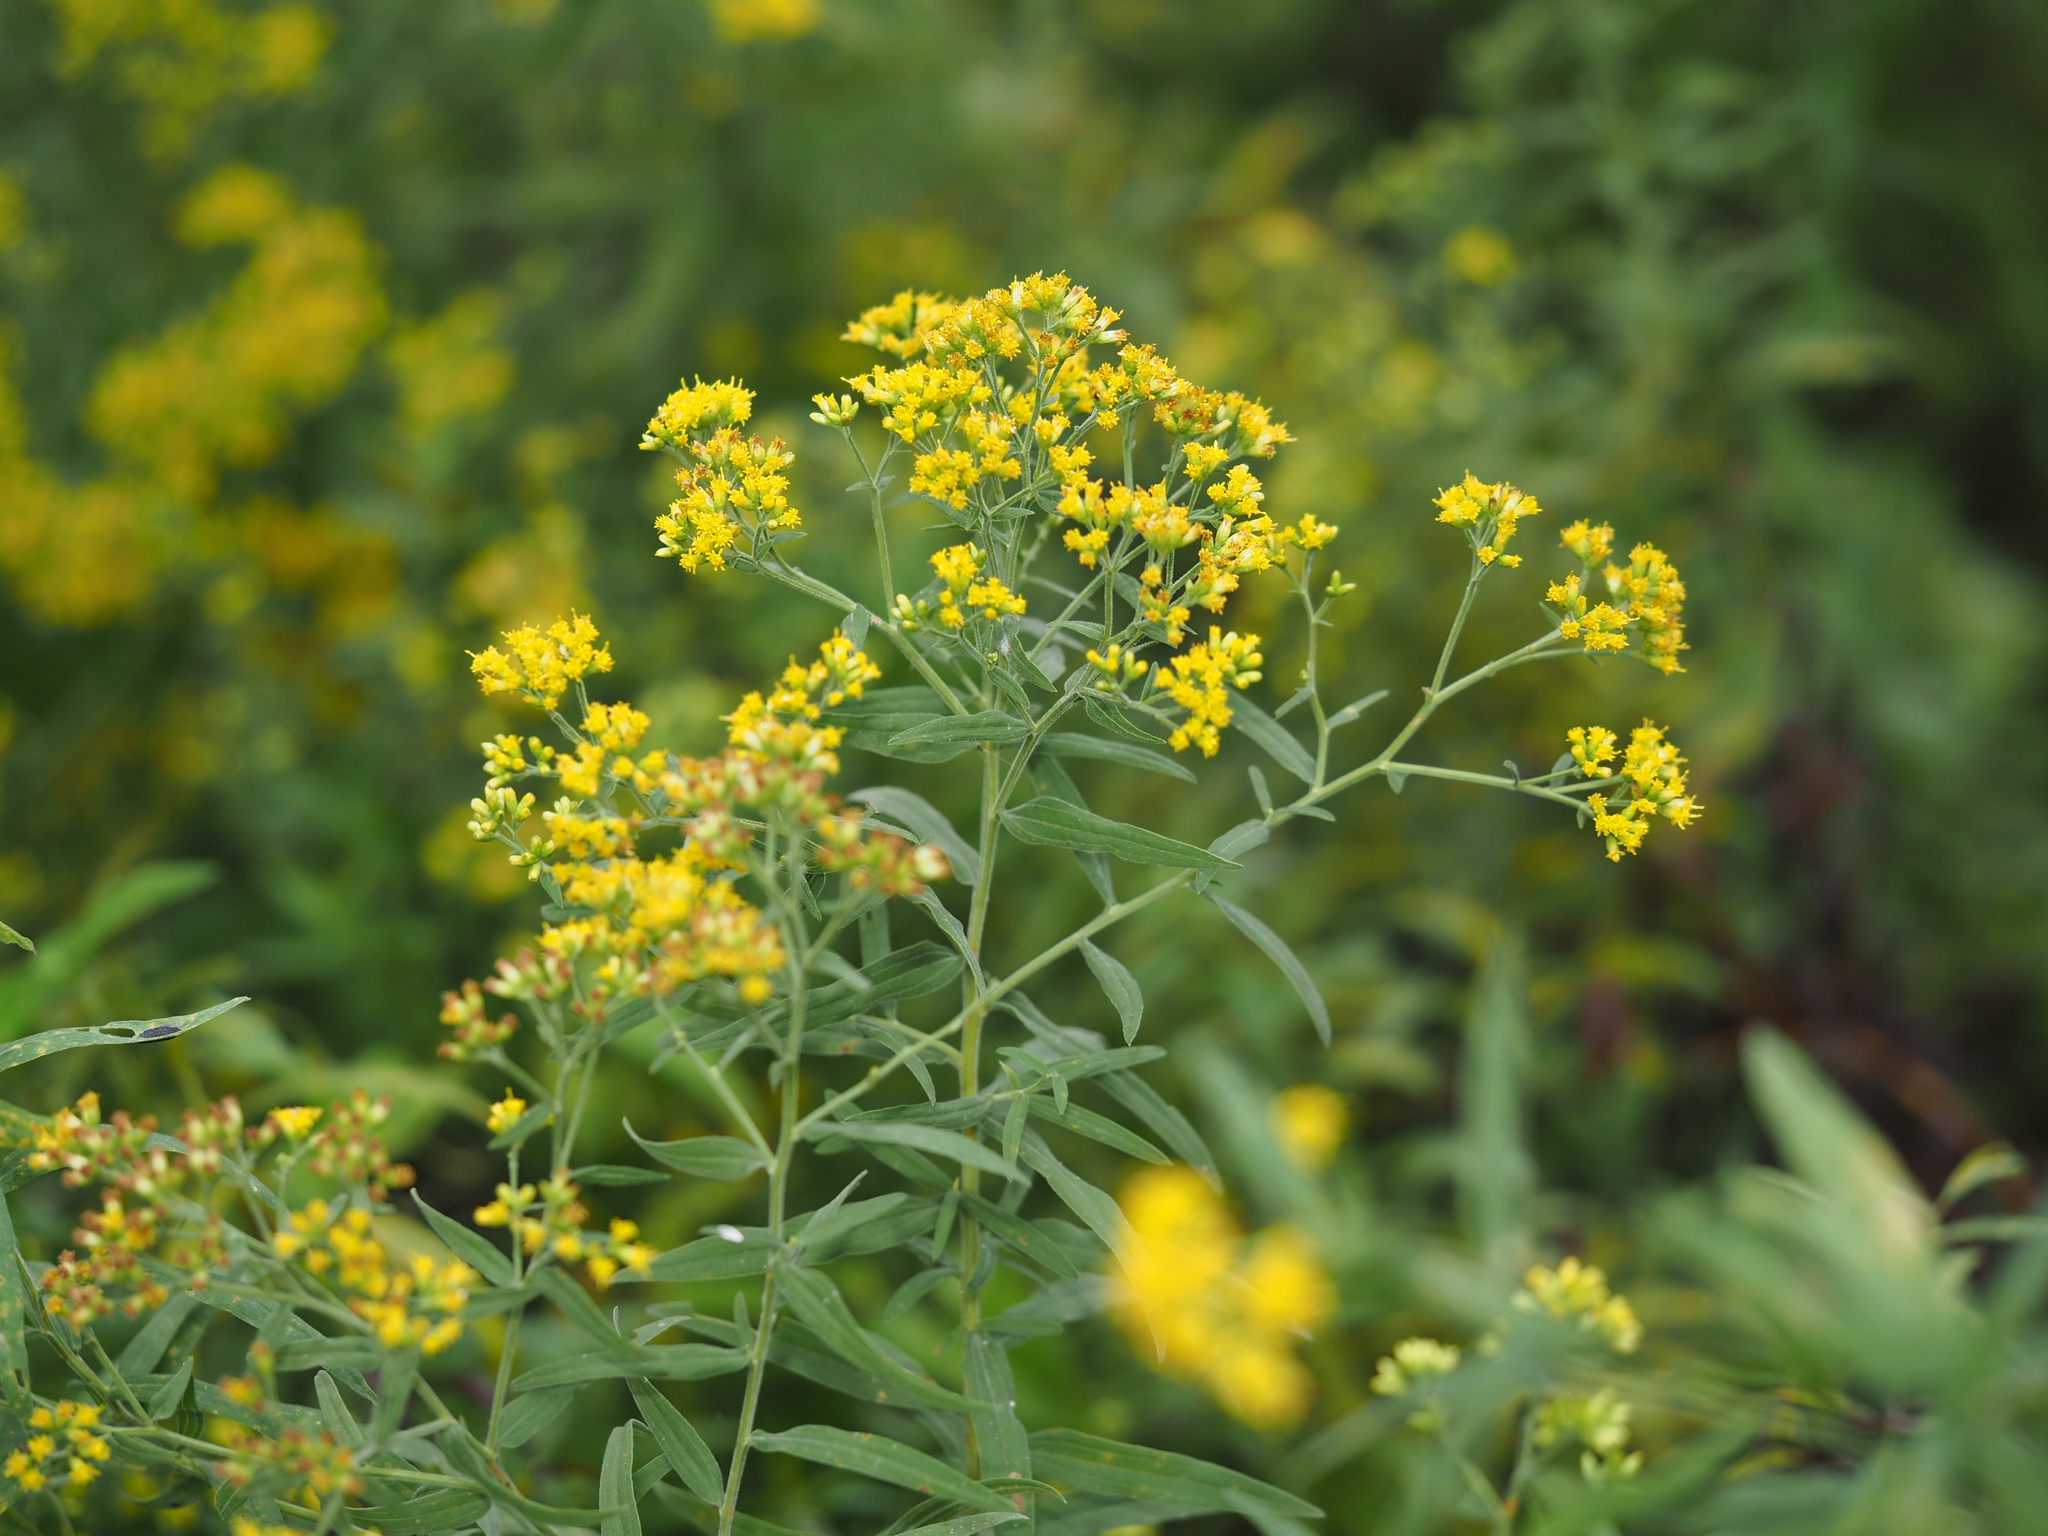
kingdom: Plantae
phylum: Tracheophyta
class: Magnoliopsida
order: Asterales
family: Asteraceae
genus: Euthamia
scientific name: Euthamia graminifolia
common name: Common goldentop
